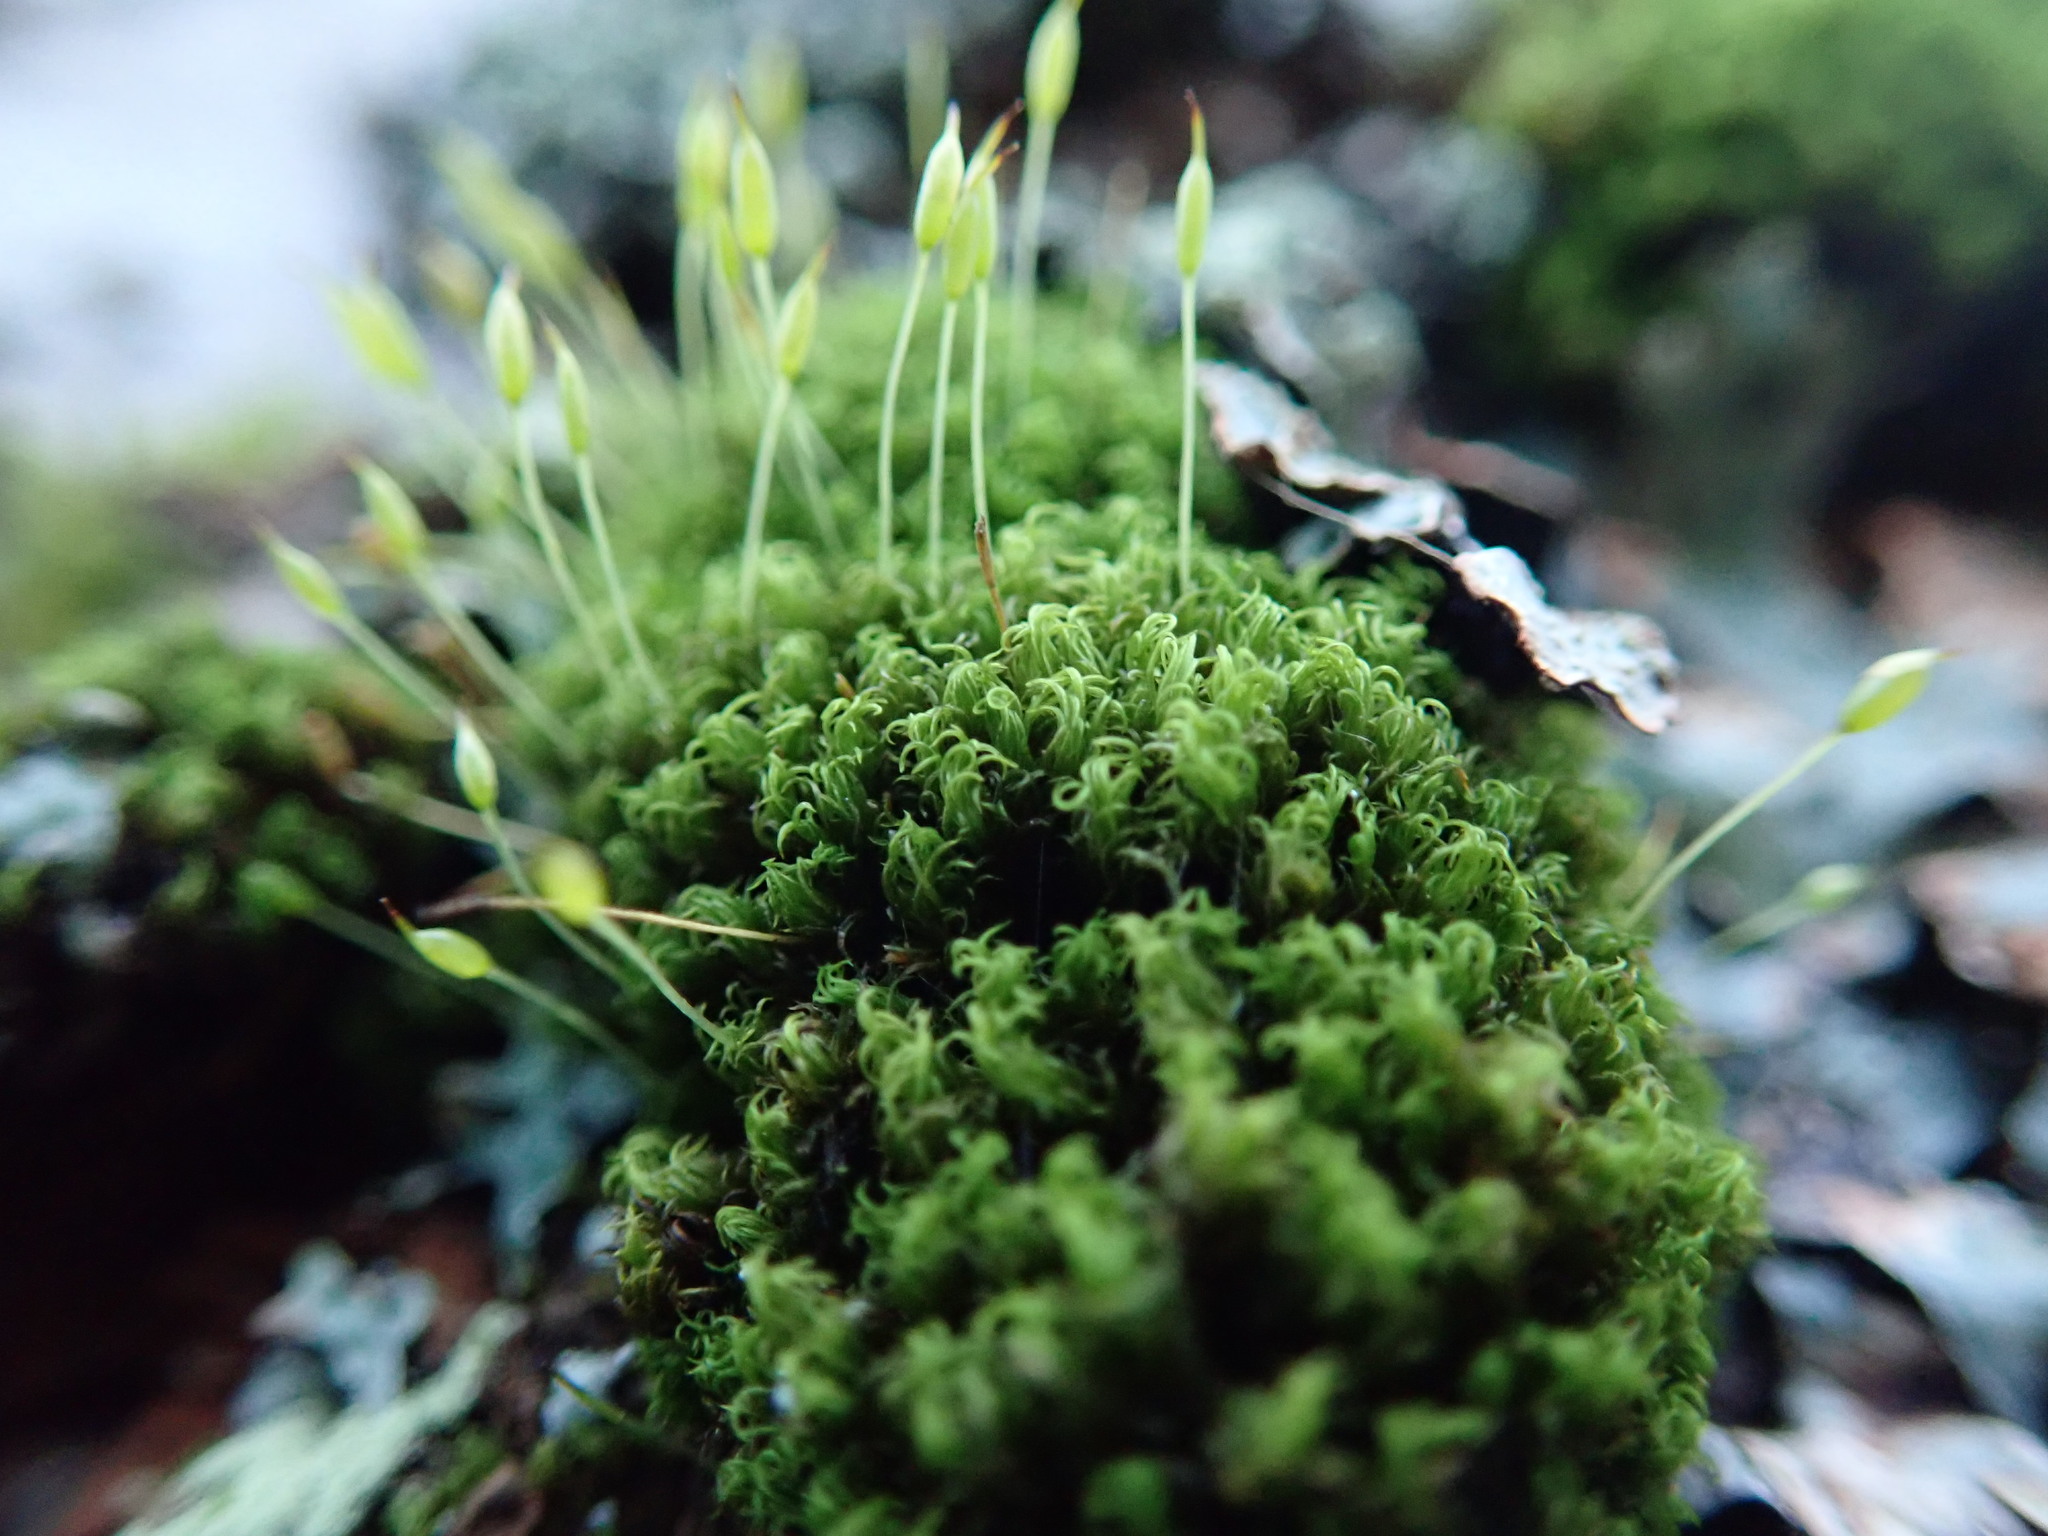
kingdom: Plantae
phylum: Bryophyta
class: Bryopsida
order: Dicranales
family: Rhabdoweisiaceae
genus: Dicranoweisia
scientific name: Dicranoweisia cirrata
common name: Common pincushion
